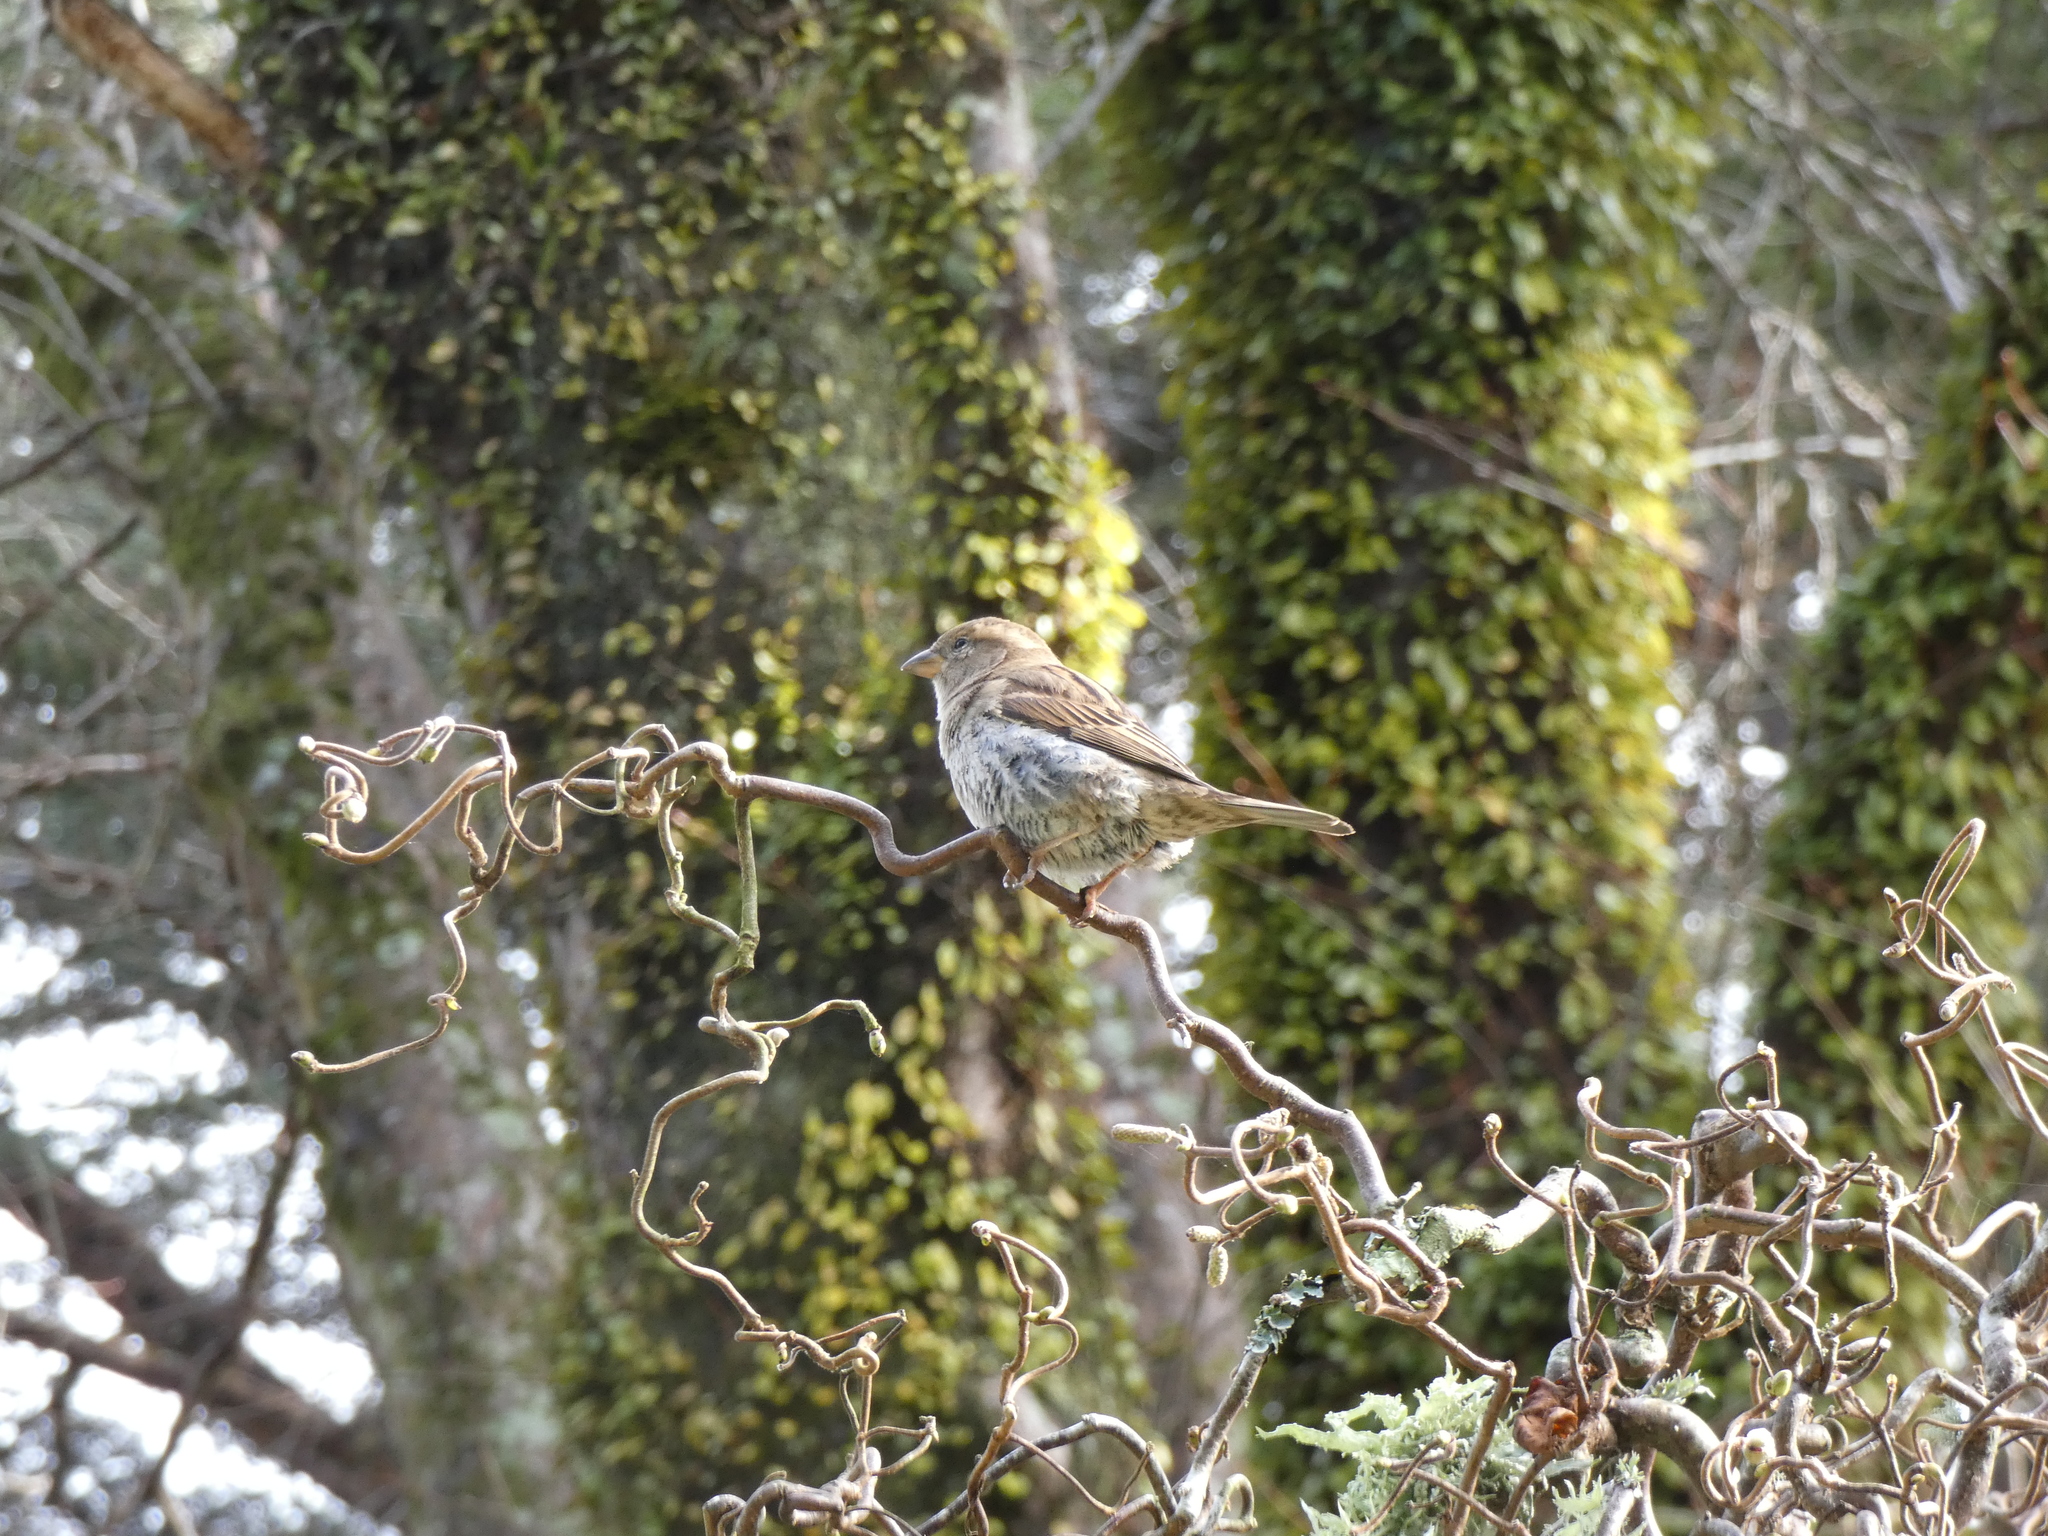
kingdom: Animalia
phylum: Chordata
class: Aves
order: Passeriformes
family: Passeridae
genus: Passer
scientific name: Passer domesticus
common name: House sparrow
